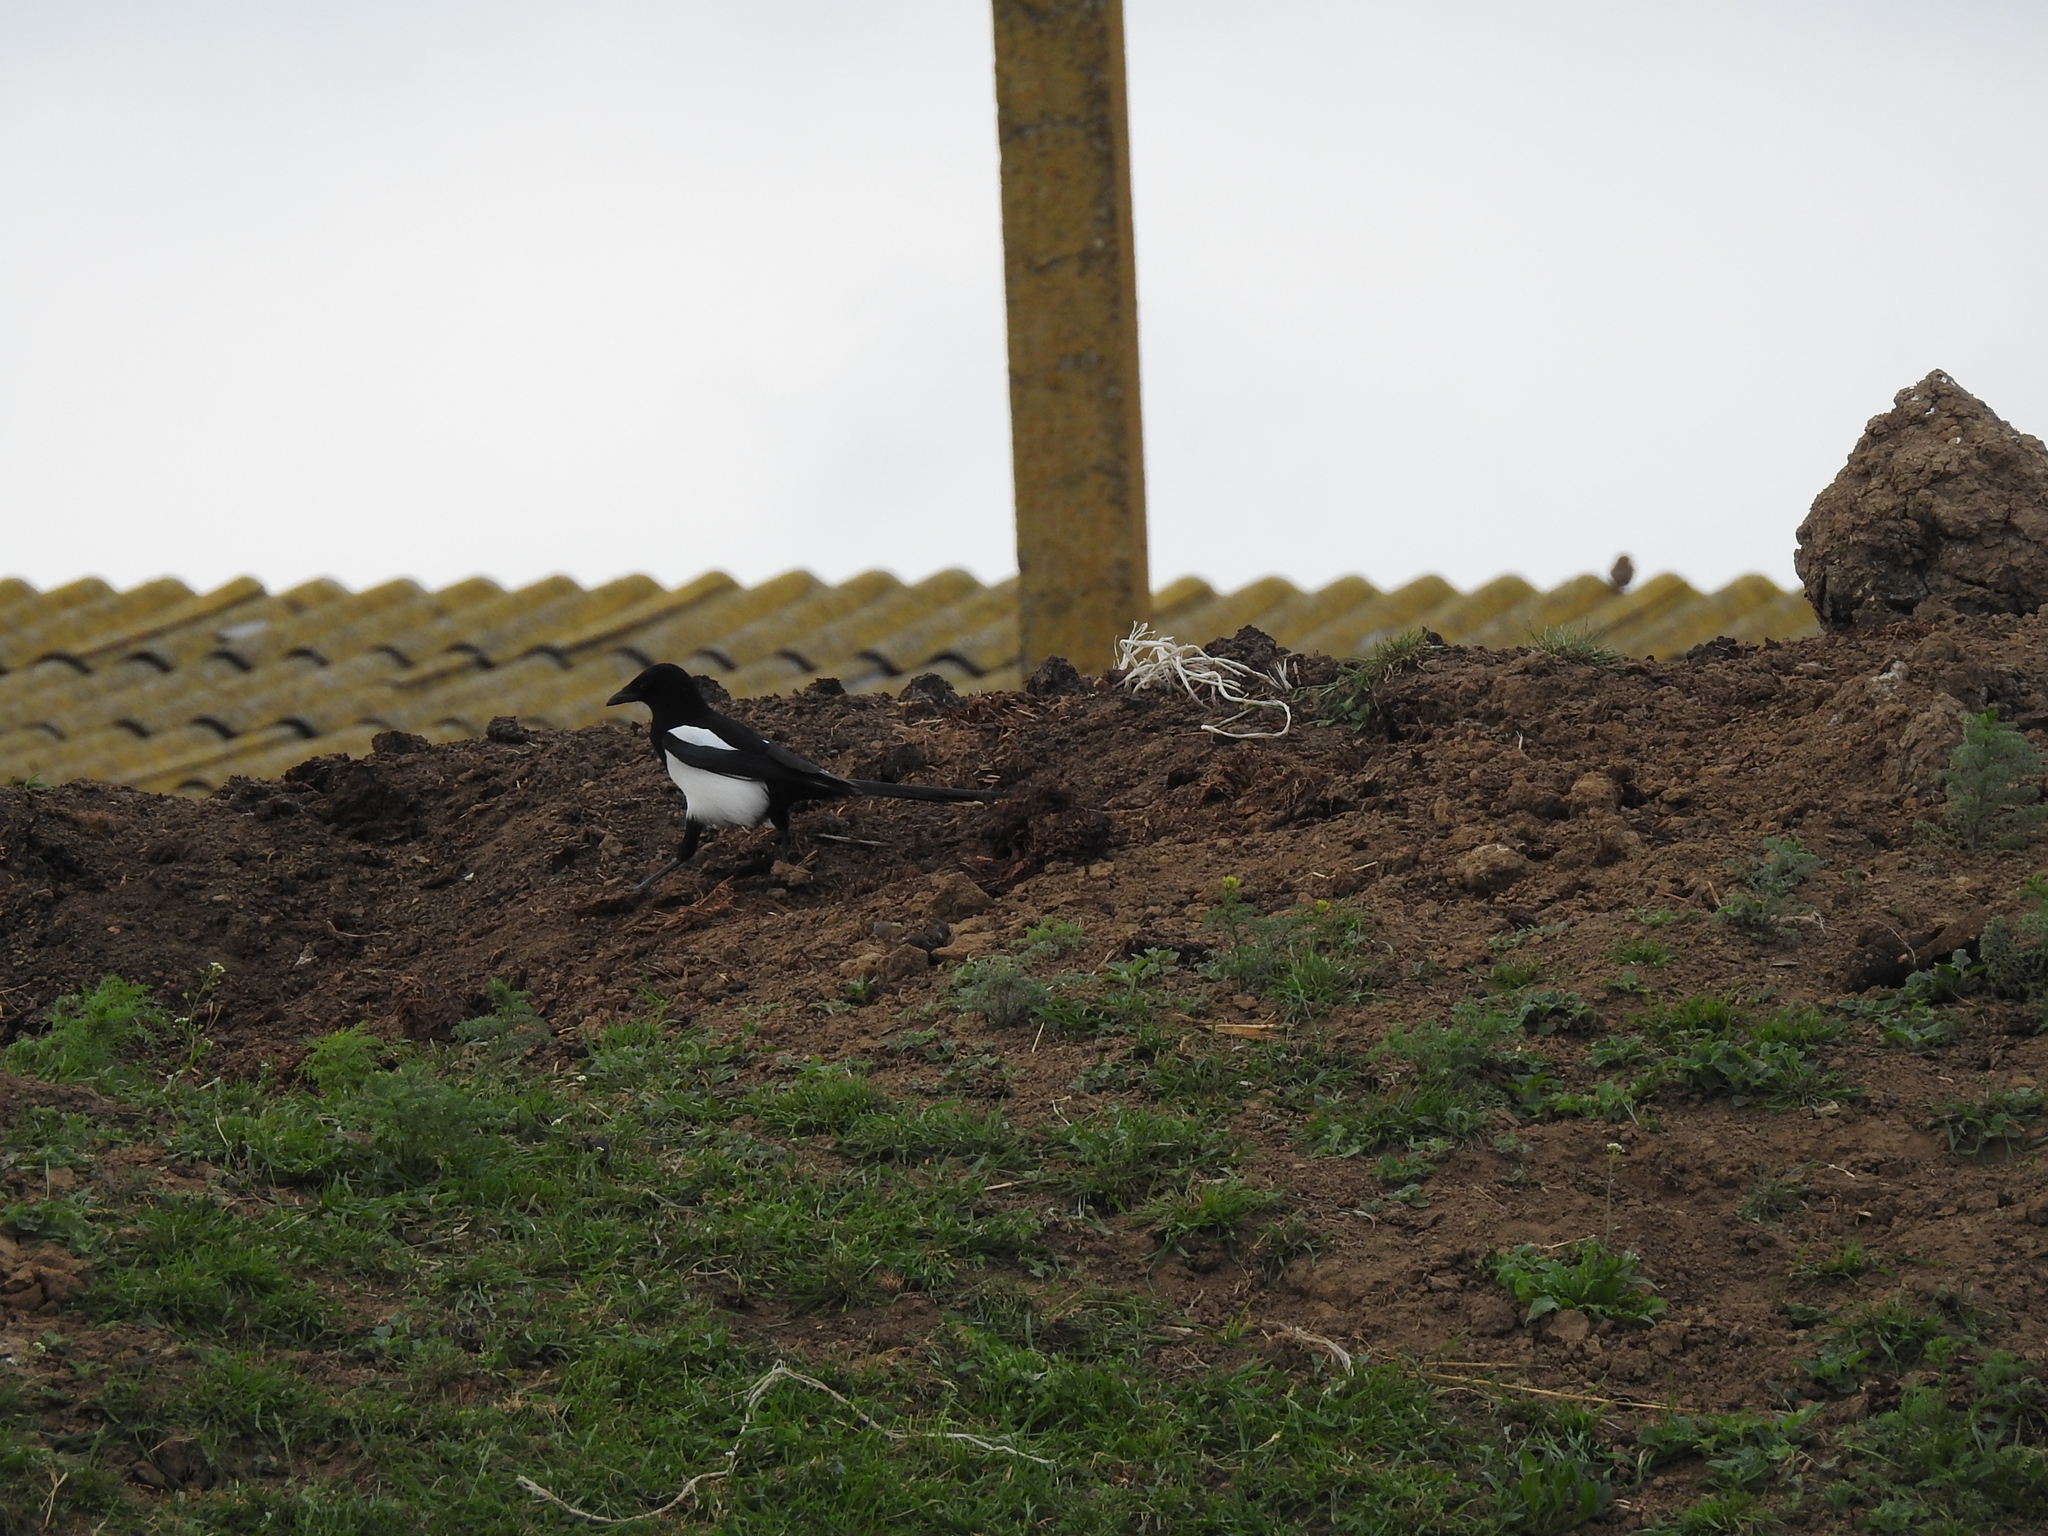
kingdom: Animalia
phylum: Chordata
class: Aves
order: Passeriformes
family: Corvidae
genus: Pica
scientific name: Pica pica
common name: Eurasian magpie
